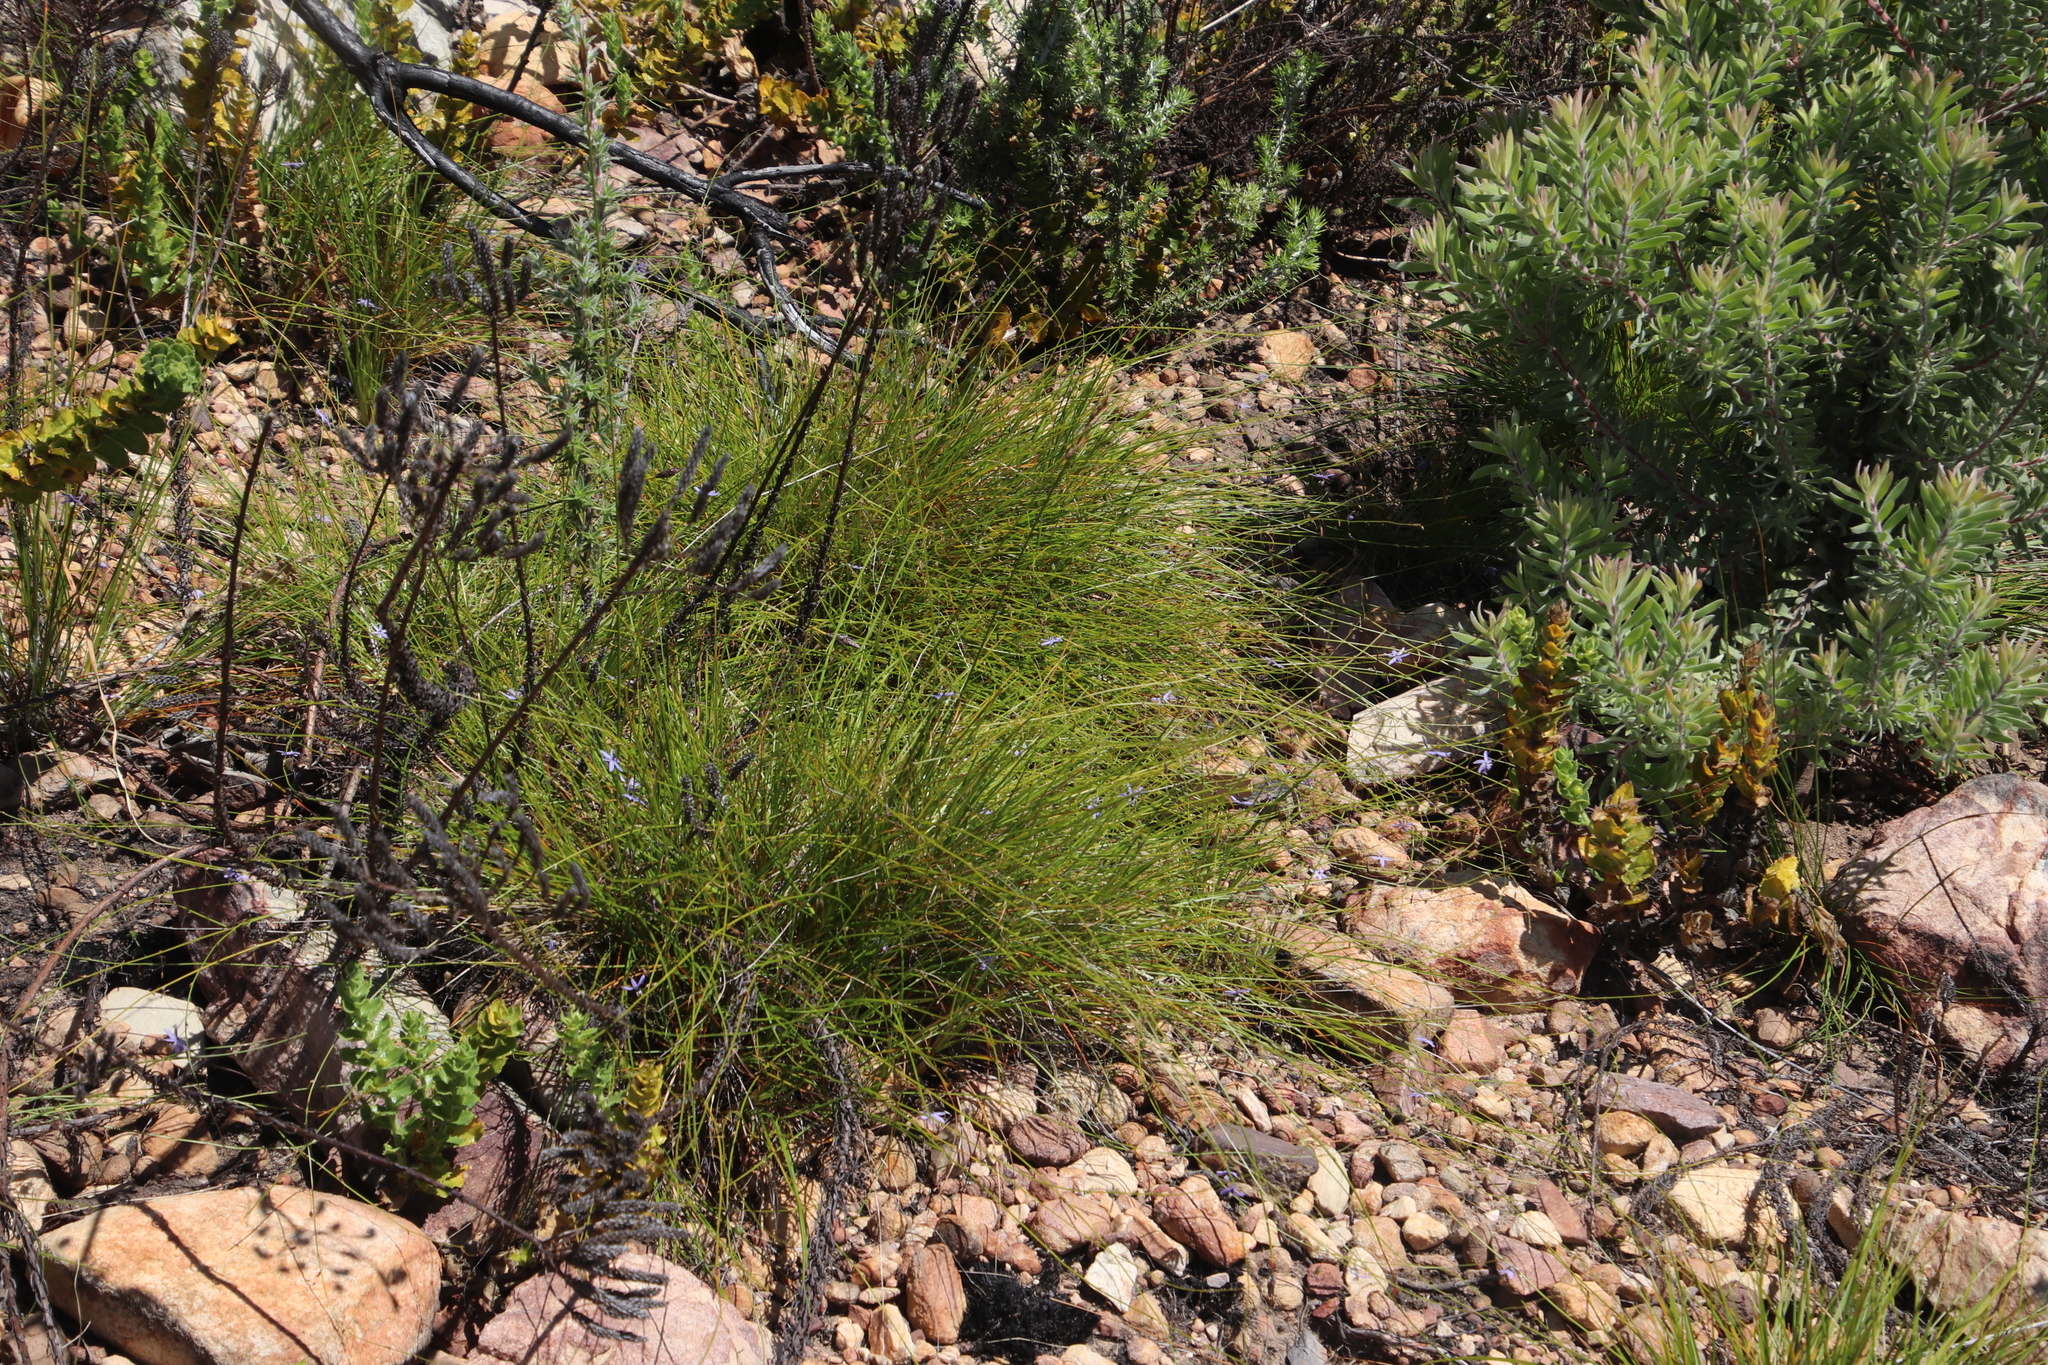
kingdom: Plantae
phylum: Tracheophyta
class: Liliopsida
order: Asparagales
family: Asphodelaceae
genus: Caesia
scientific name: Caesia contorta
